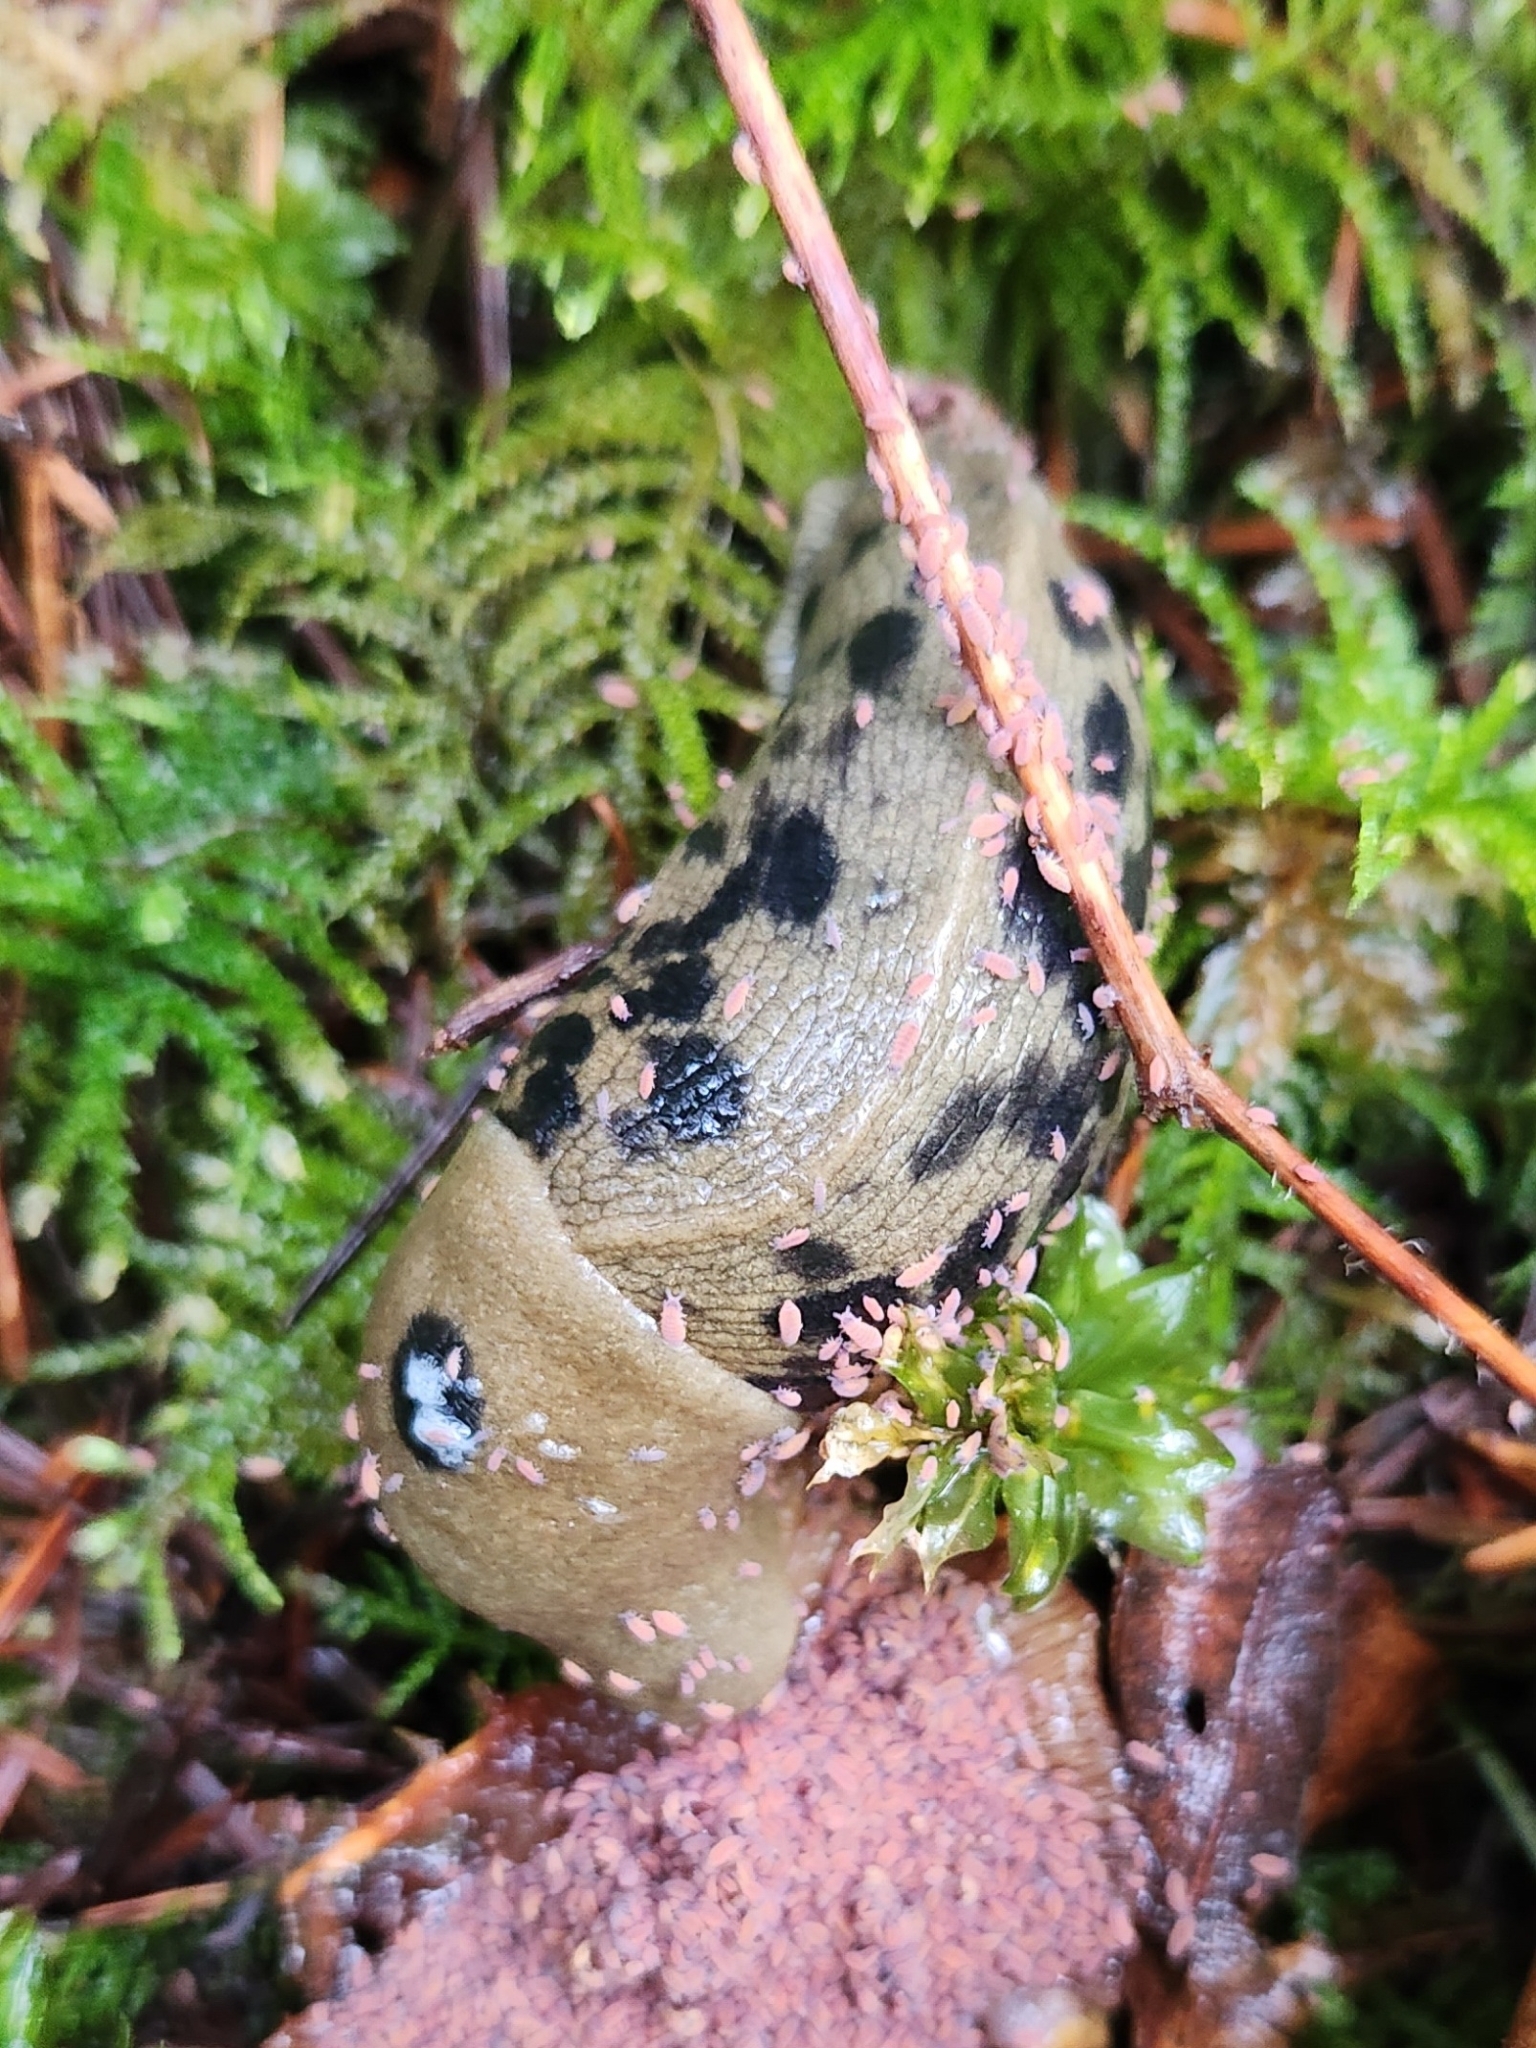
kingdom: Animalia
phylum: Mollusca
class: Gastropoda
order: Stylommatophora
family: Ariolimacidae
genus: Ariolimax
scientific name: Ariolimax columbianus
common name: Pacific banana slug
